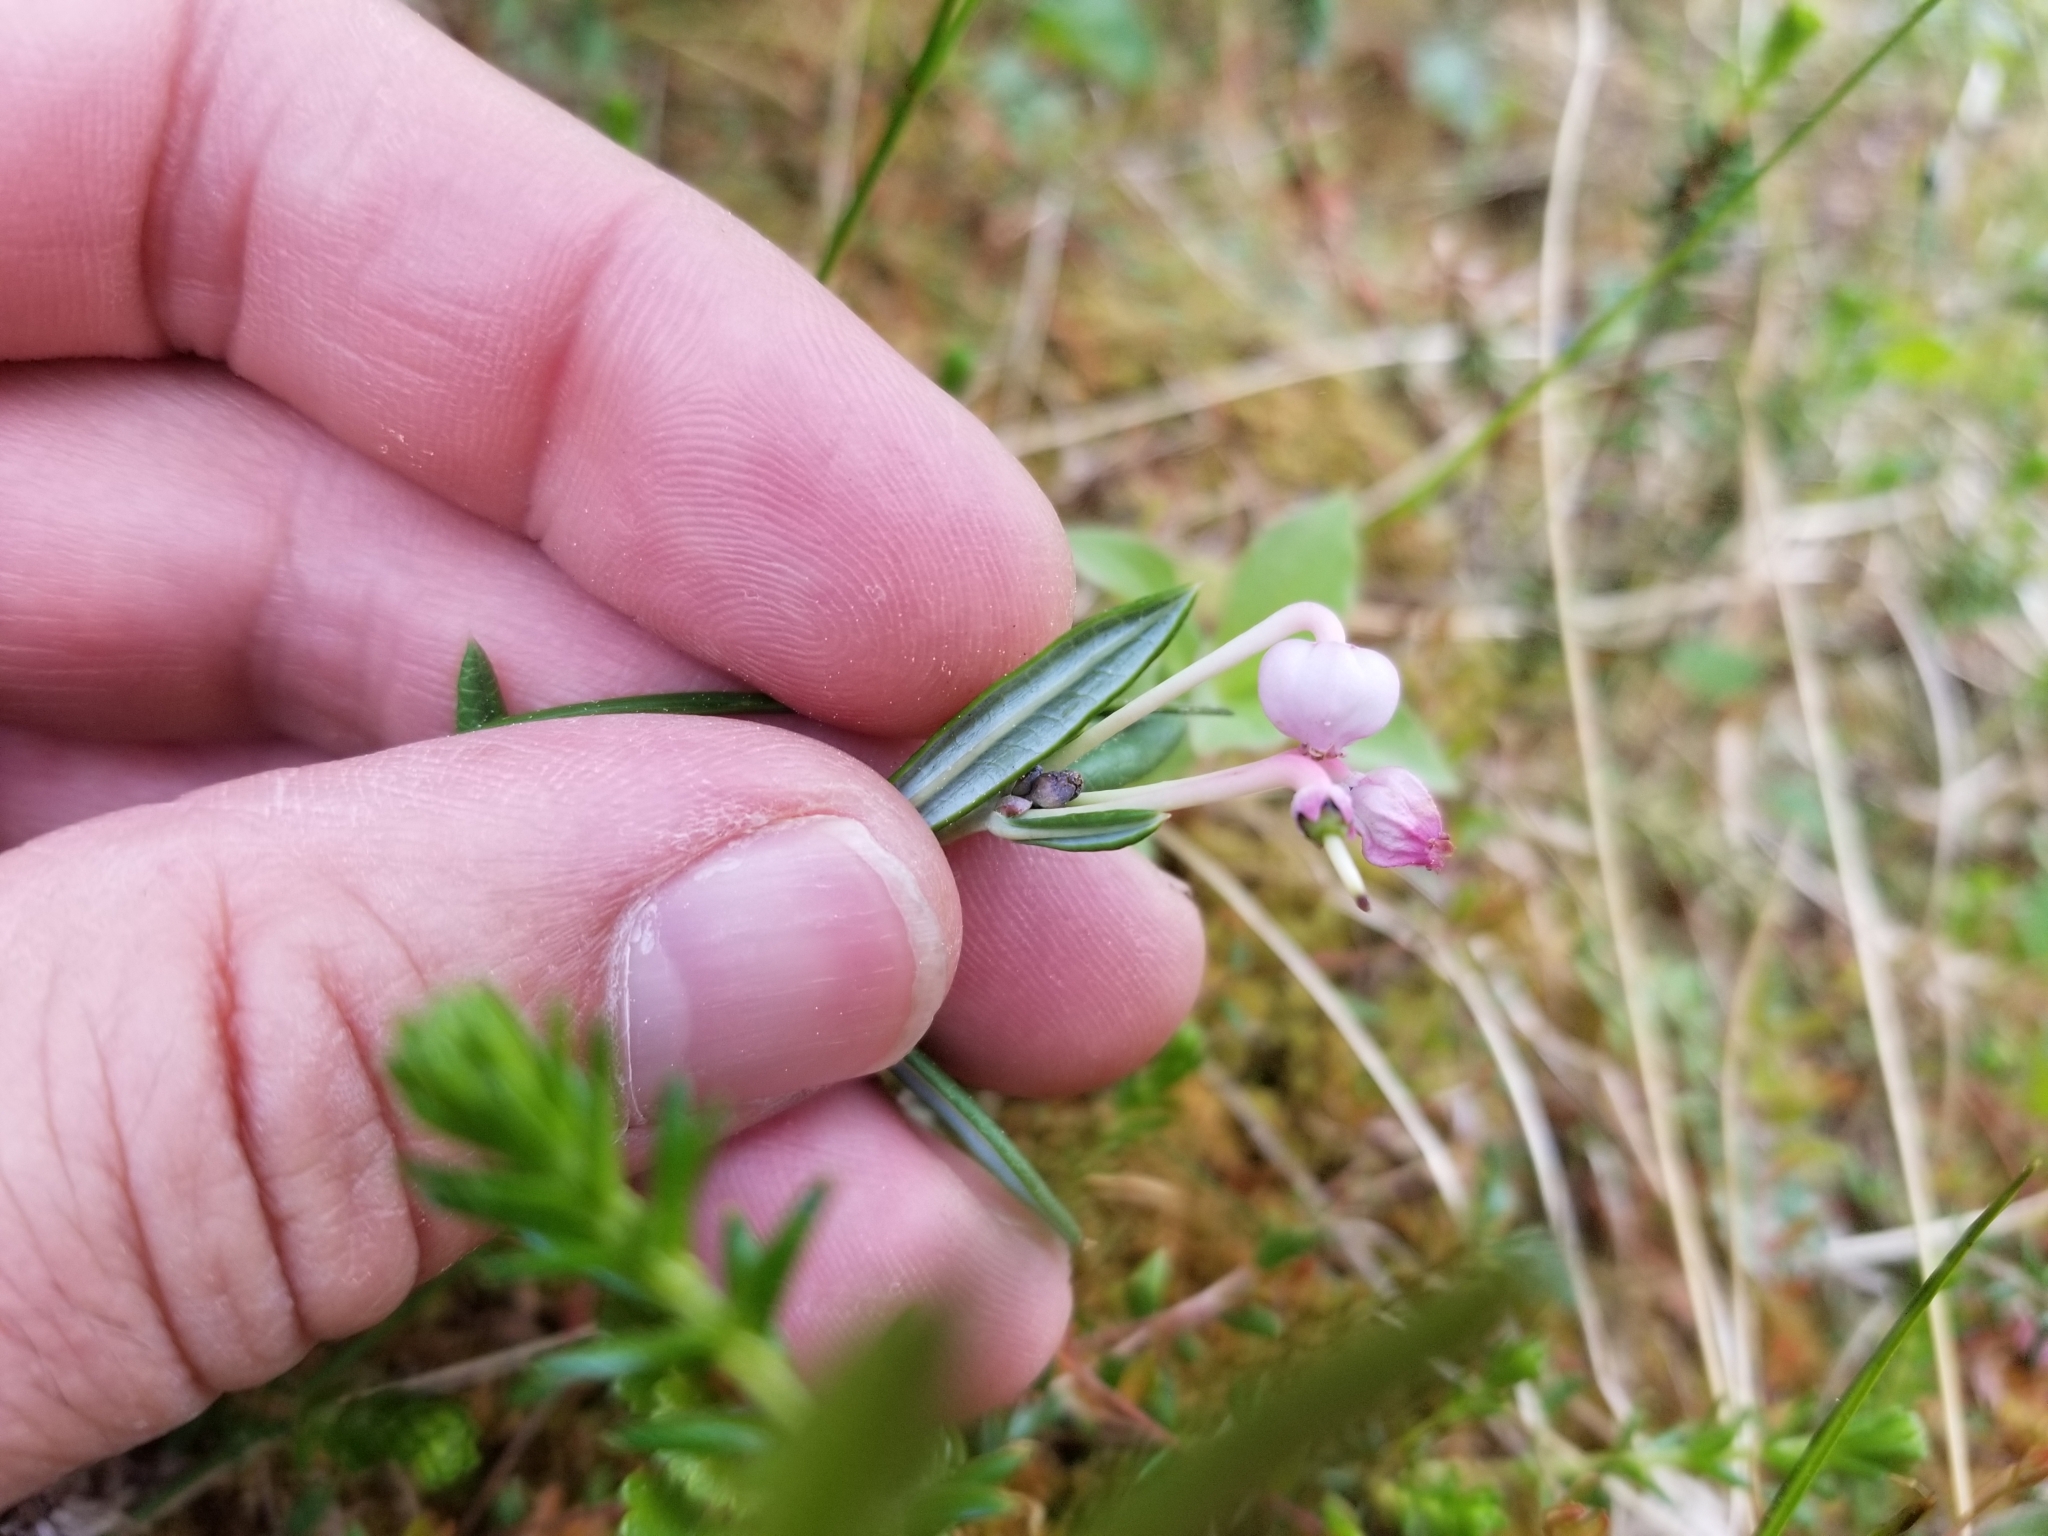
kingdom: Plantae
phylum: Tracheophyta
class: Magnoliopsida
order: Ericales
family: Ericaceae
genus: Andromeda
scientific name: Andromeda polifolia
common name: Bog-rosemary
